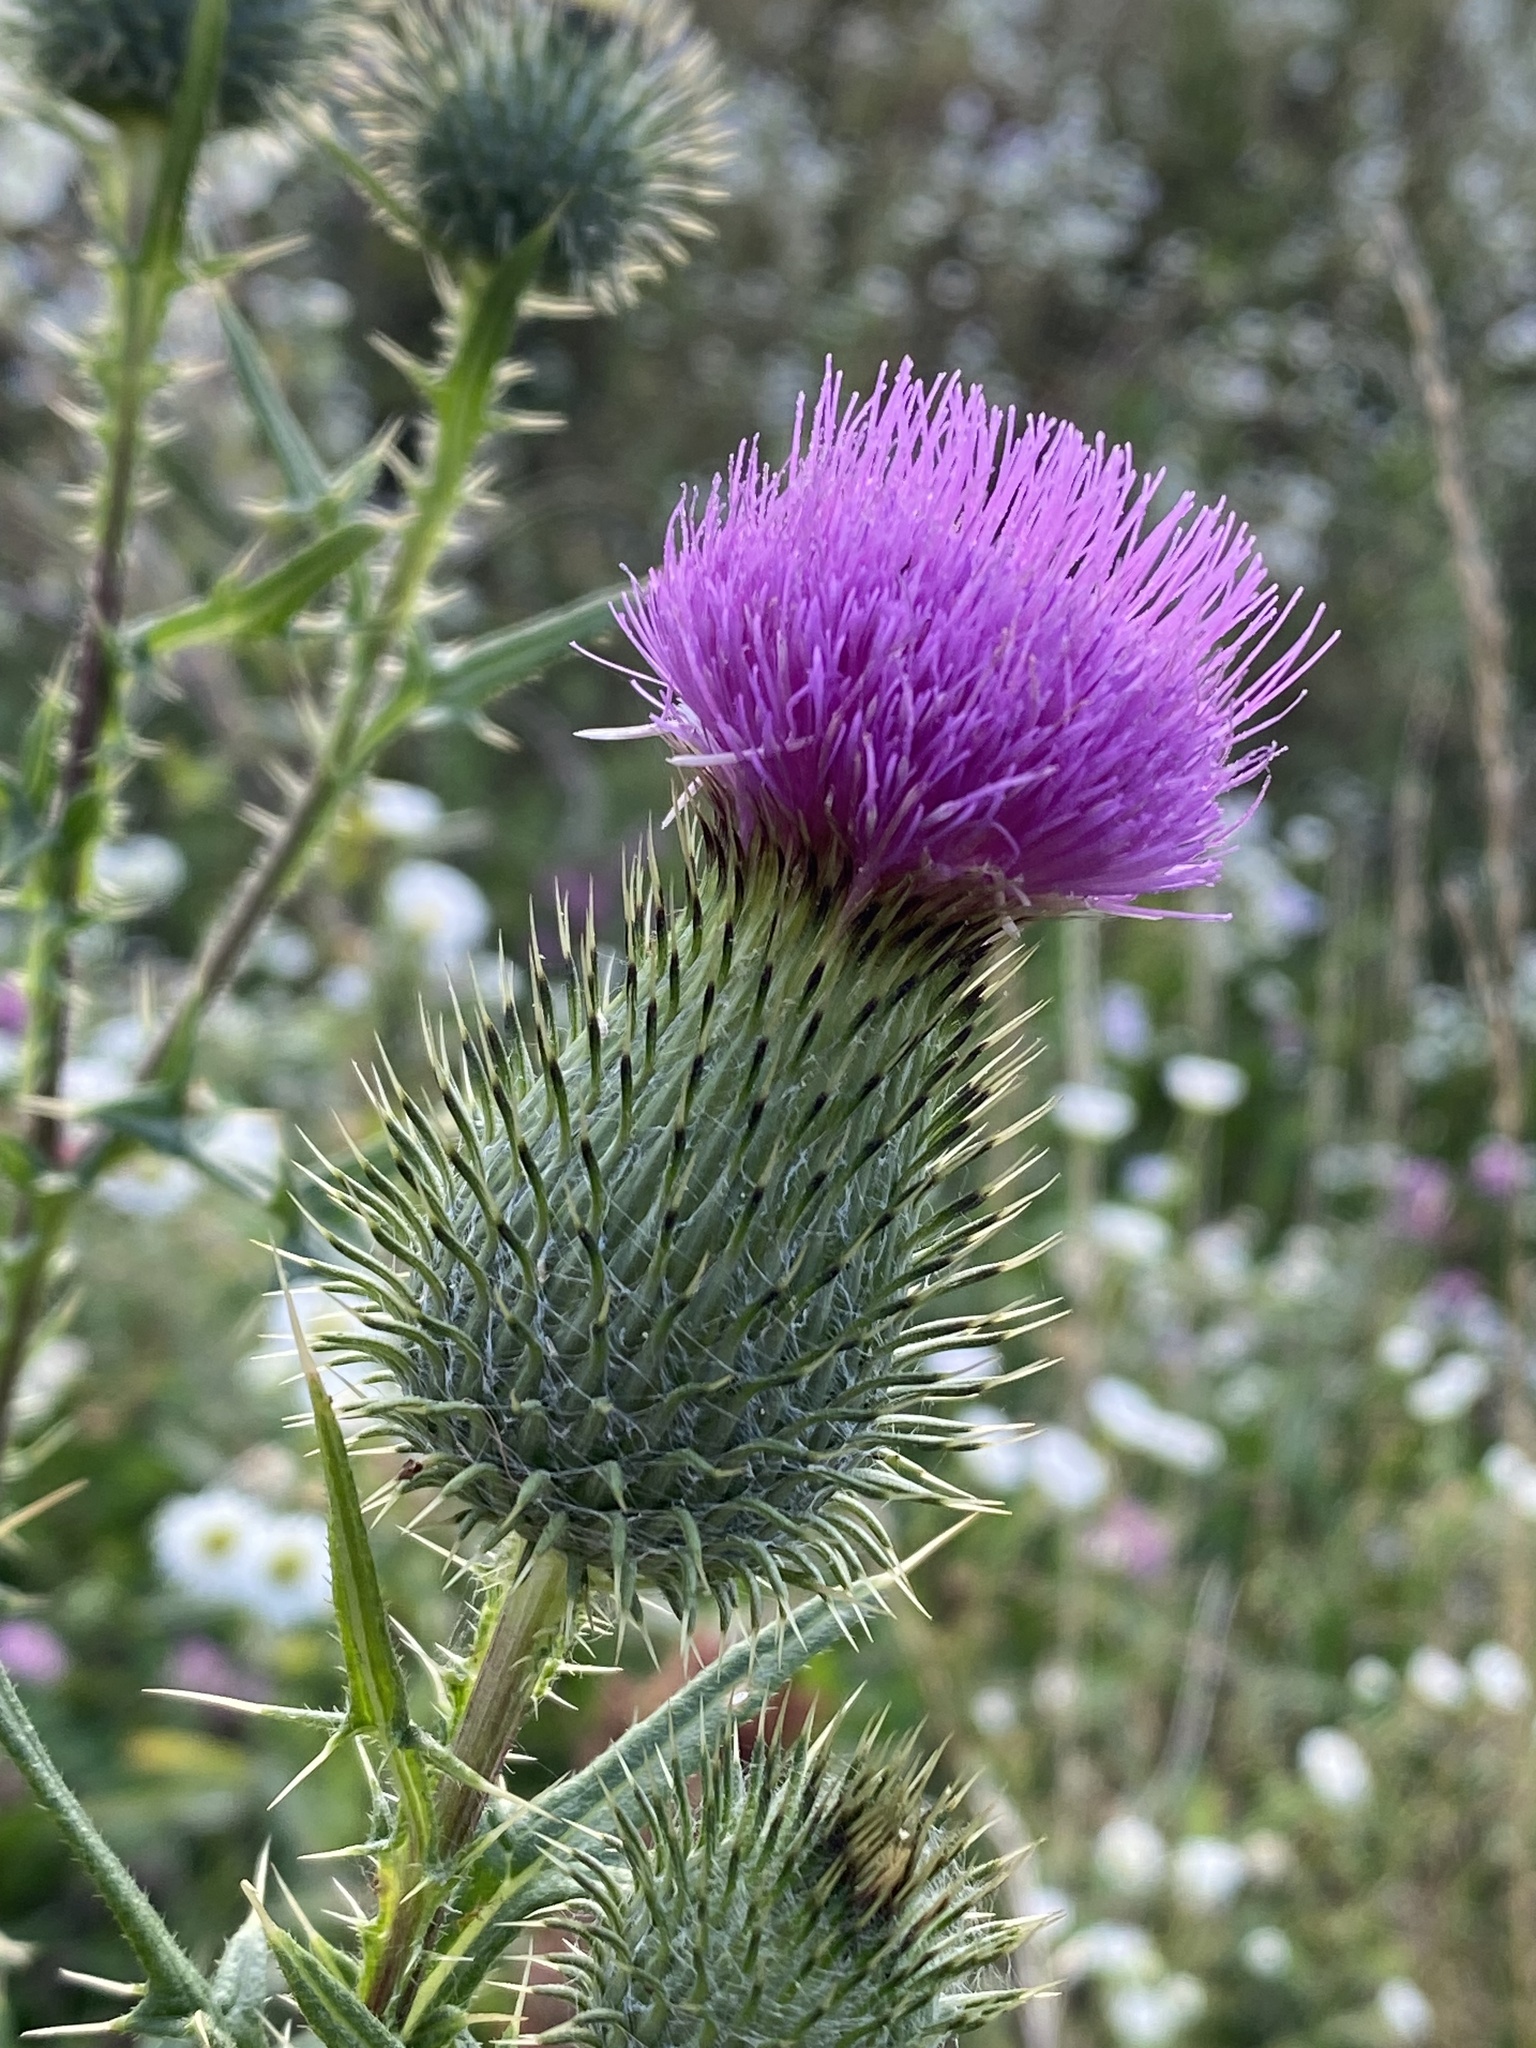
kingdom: Plantae
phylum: Tracheophyta
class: Magnoliopsida
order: Asterales
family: Asteraceae
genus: Cirsium
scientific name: Cirsium vulgare
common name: Bull thistle
